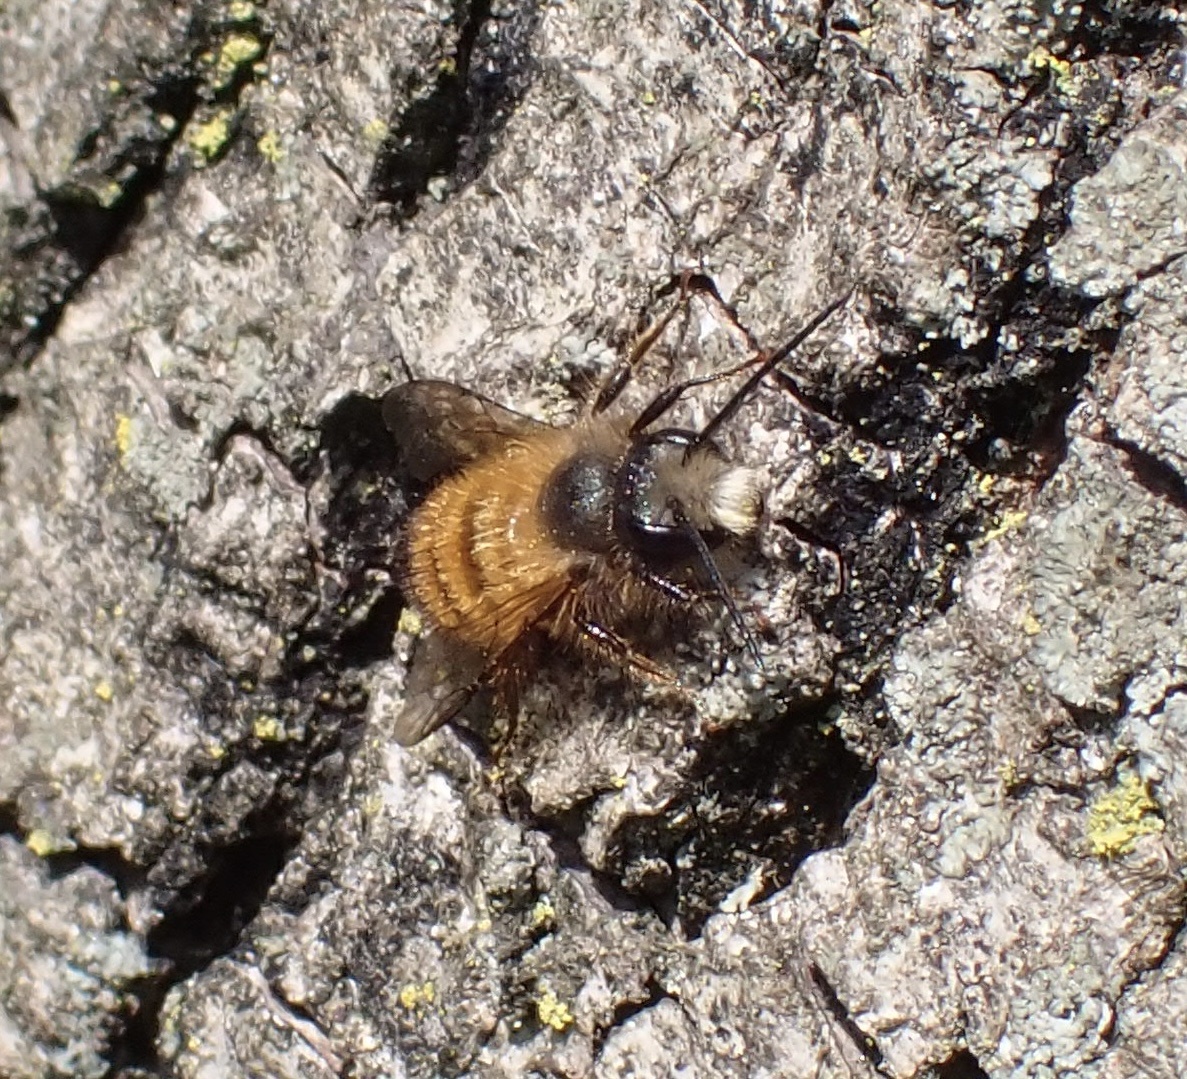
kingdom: Animalia
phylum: Arthropoda
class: Insecta
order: Hymenoptera
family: Megachilidae
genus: Osmia
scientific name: Osmia bicornis
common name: Red mason bee
